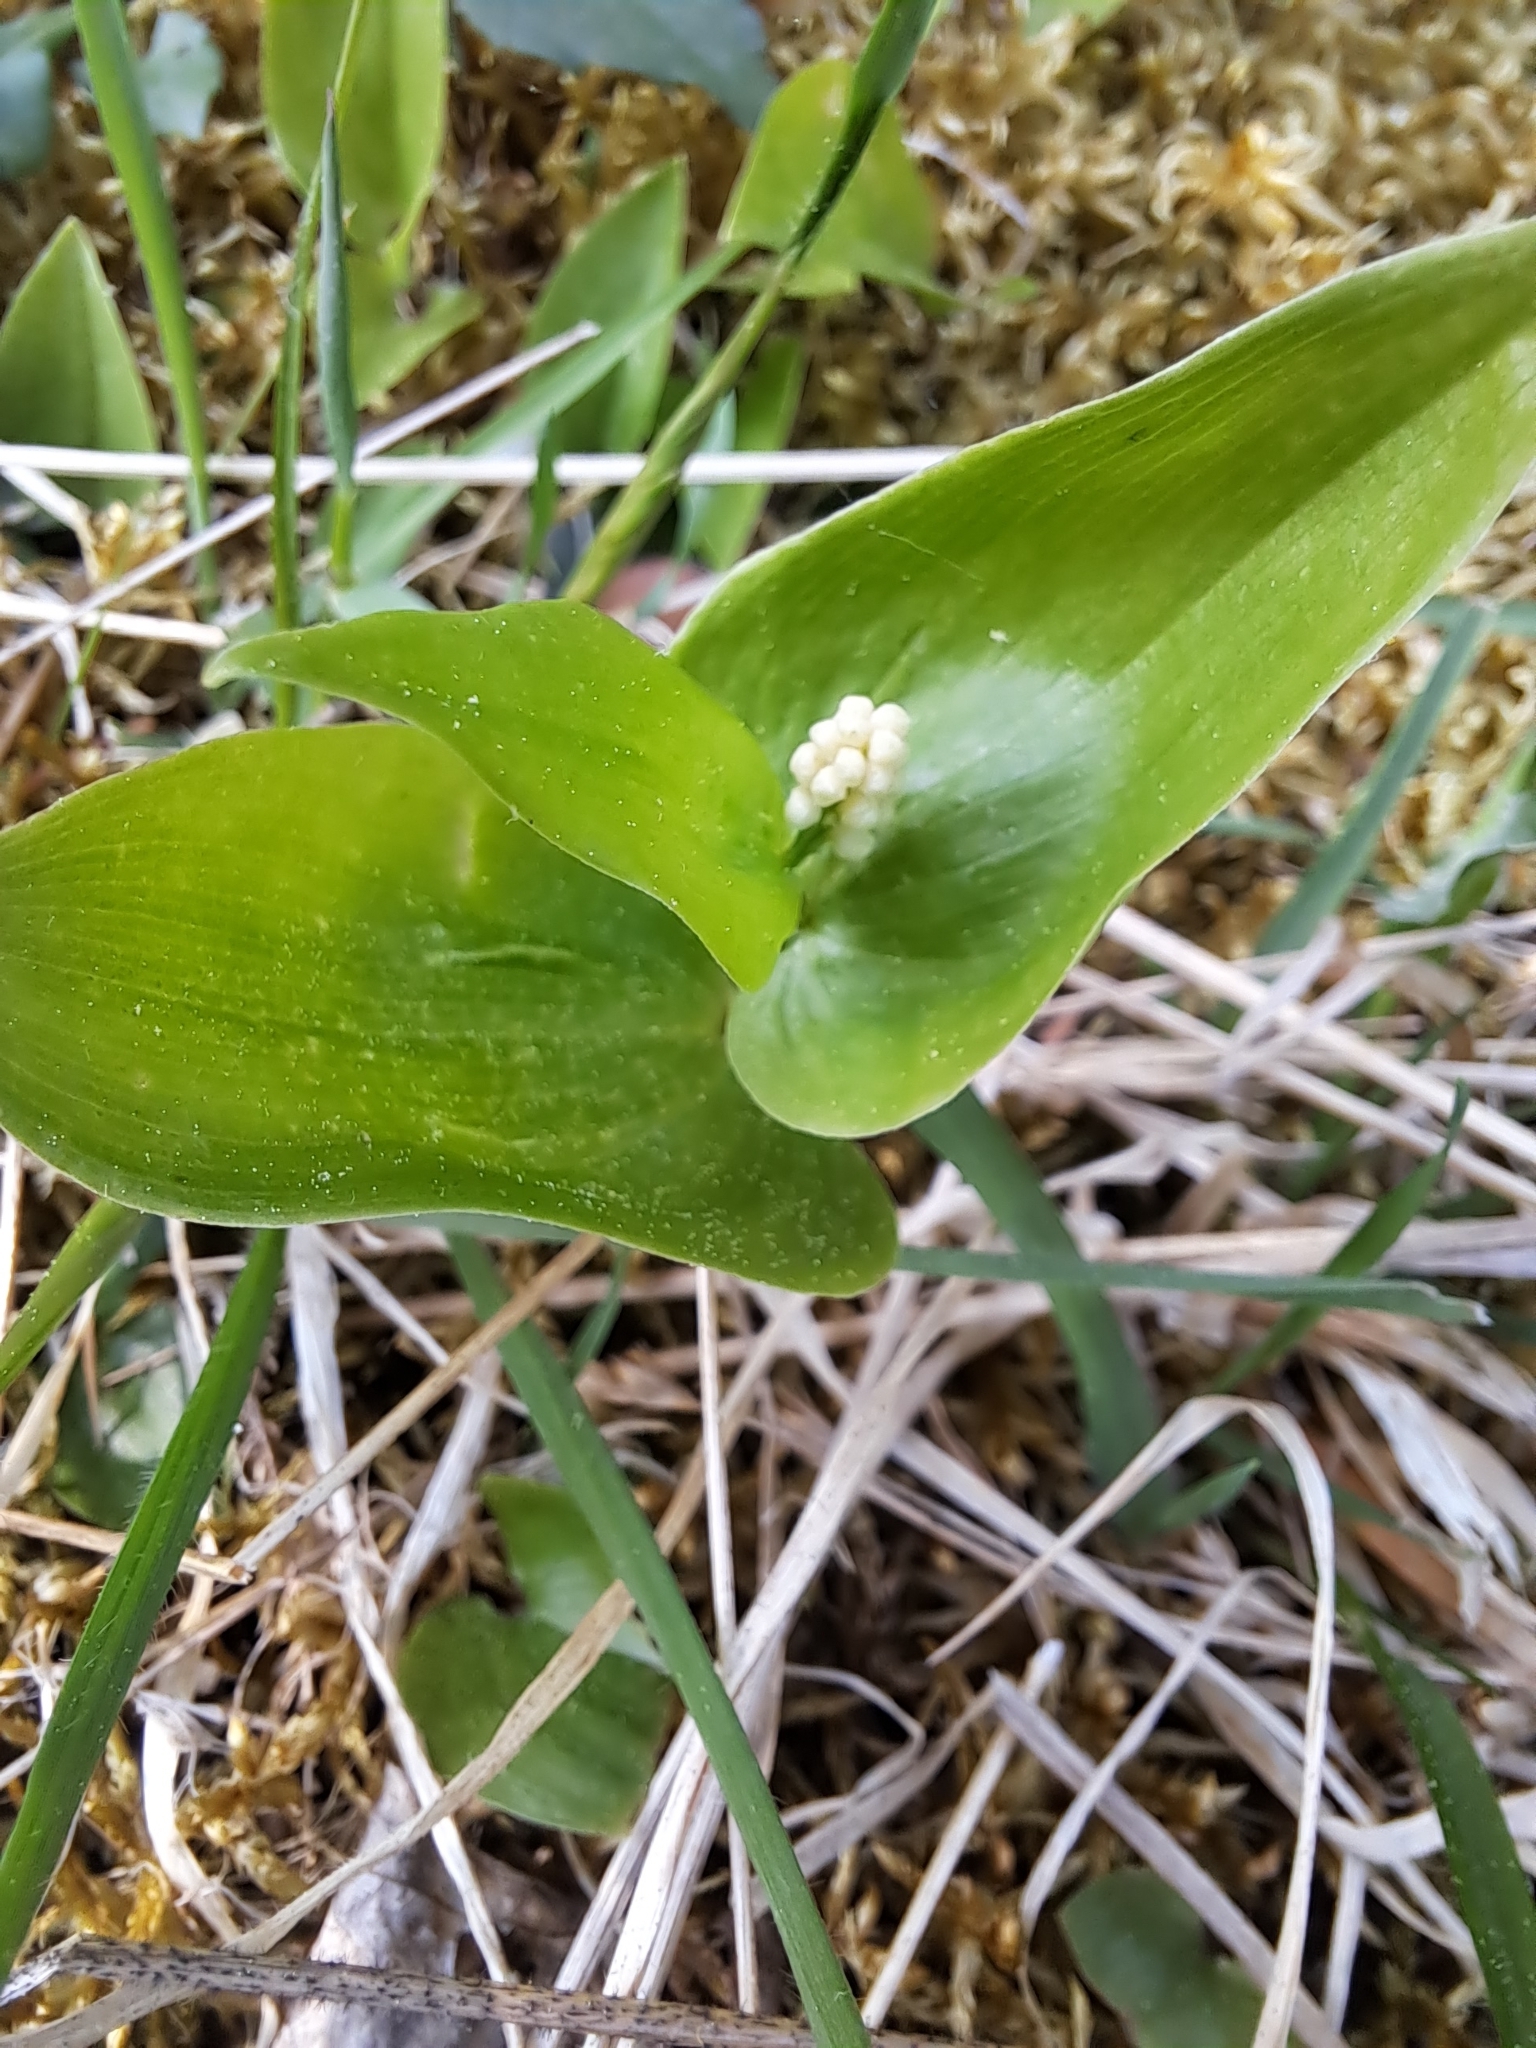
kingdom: Plantae
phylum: Tracheophyta
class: Liliopsida
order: Asparagales
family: Asparagaceae
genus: Maianthemum
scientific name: Maianthemum canadense
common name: False lily-of-the-valley
